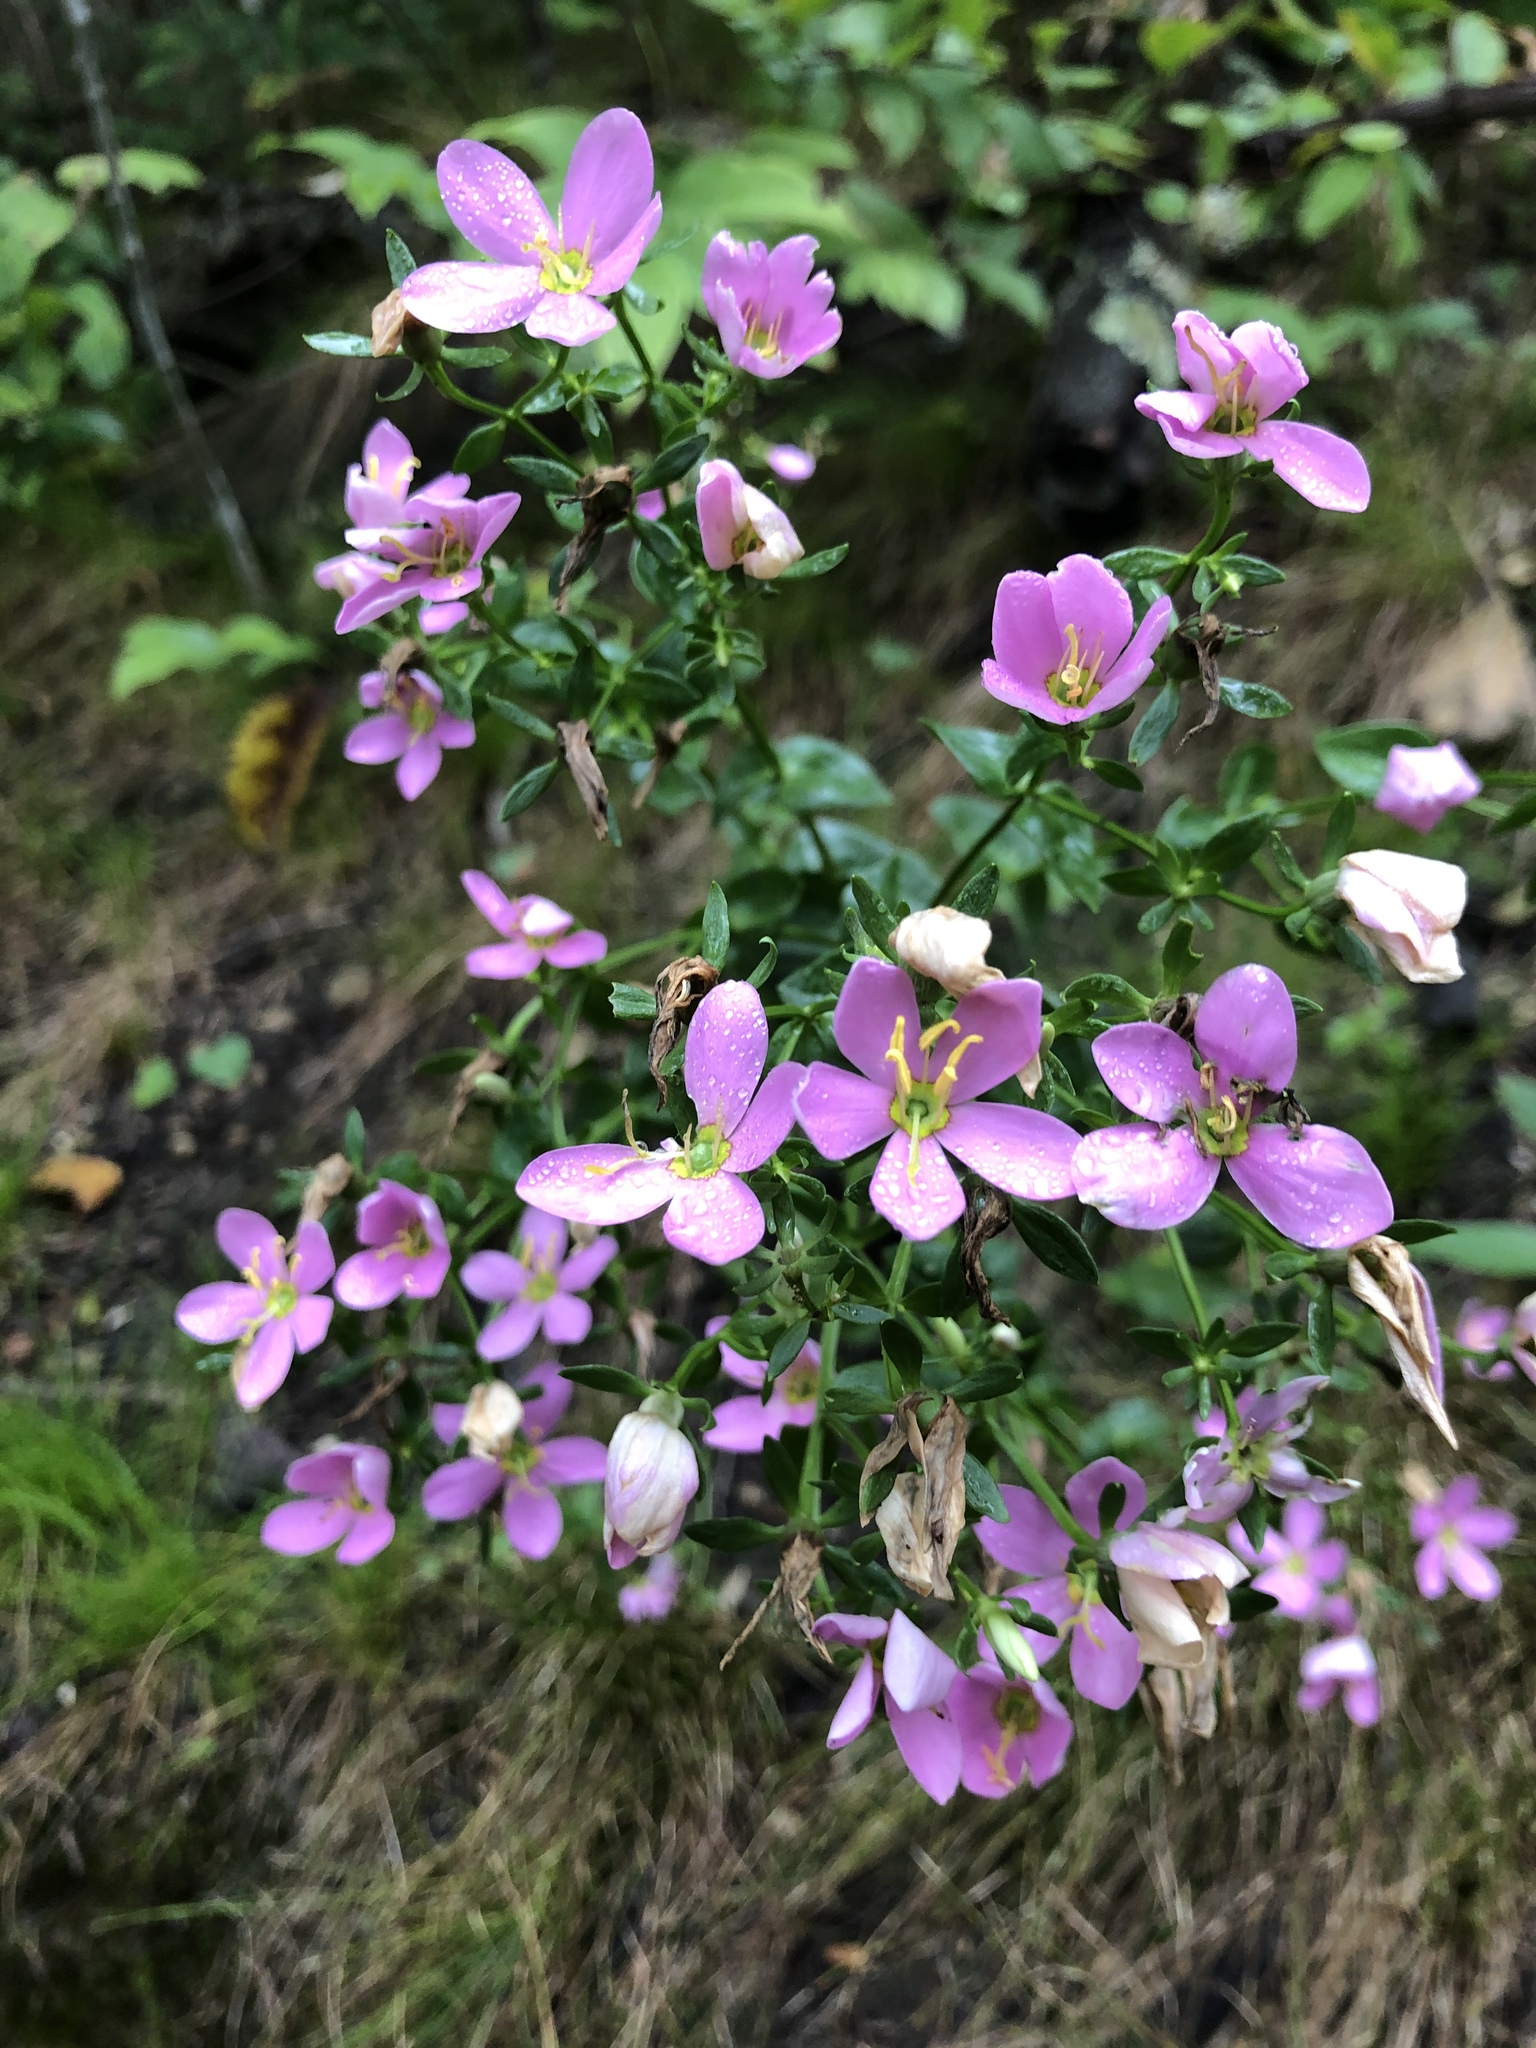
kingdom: Plantae
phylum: Tracheophyta
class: Magnoliopsida
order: Gentianales
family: Gentianaceae
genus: Sabatia
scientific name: Sabatia angularis
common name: Rose-pink
